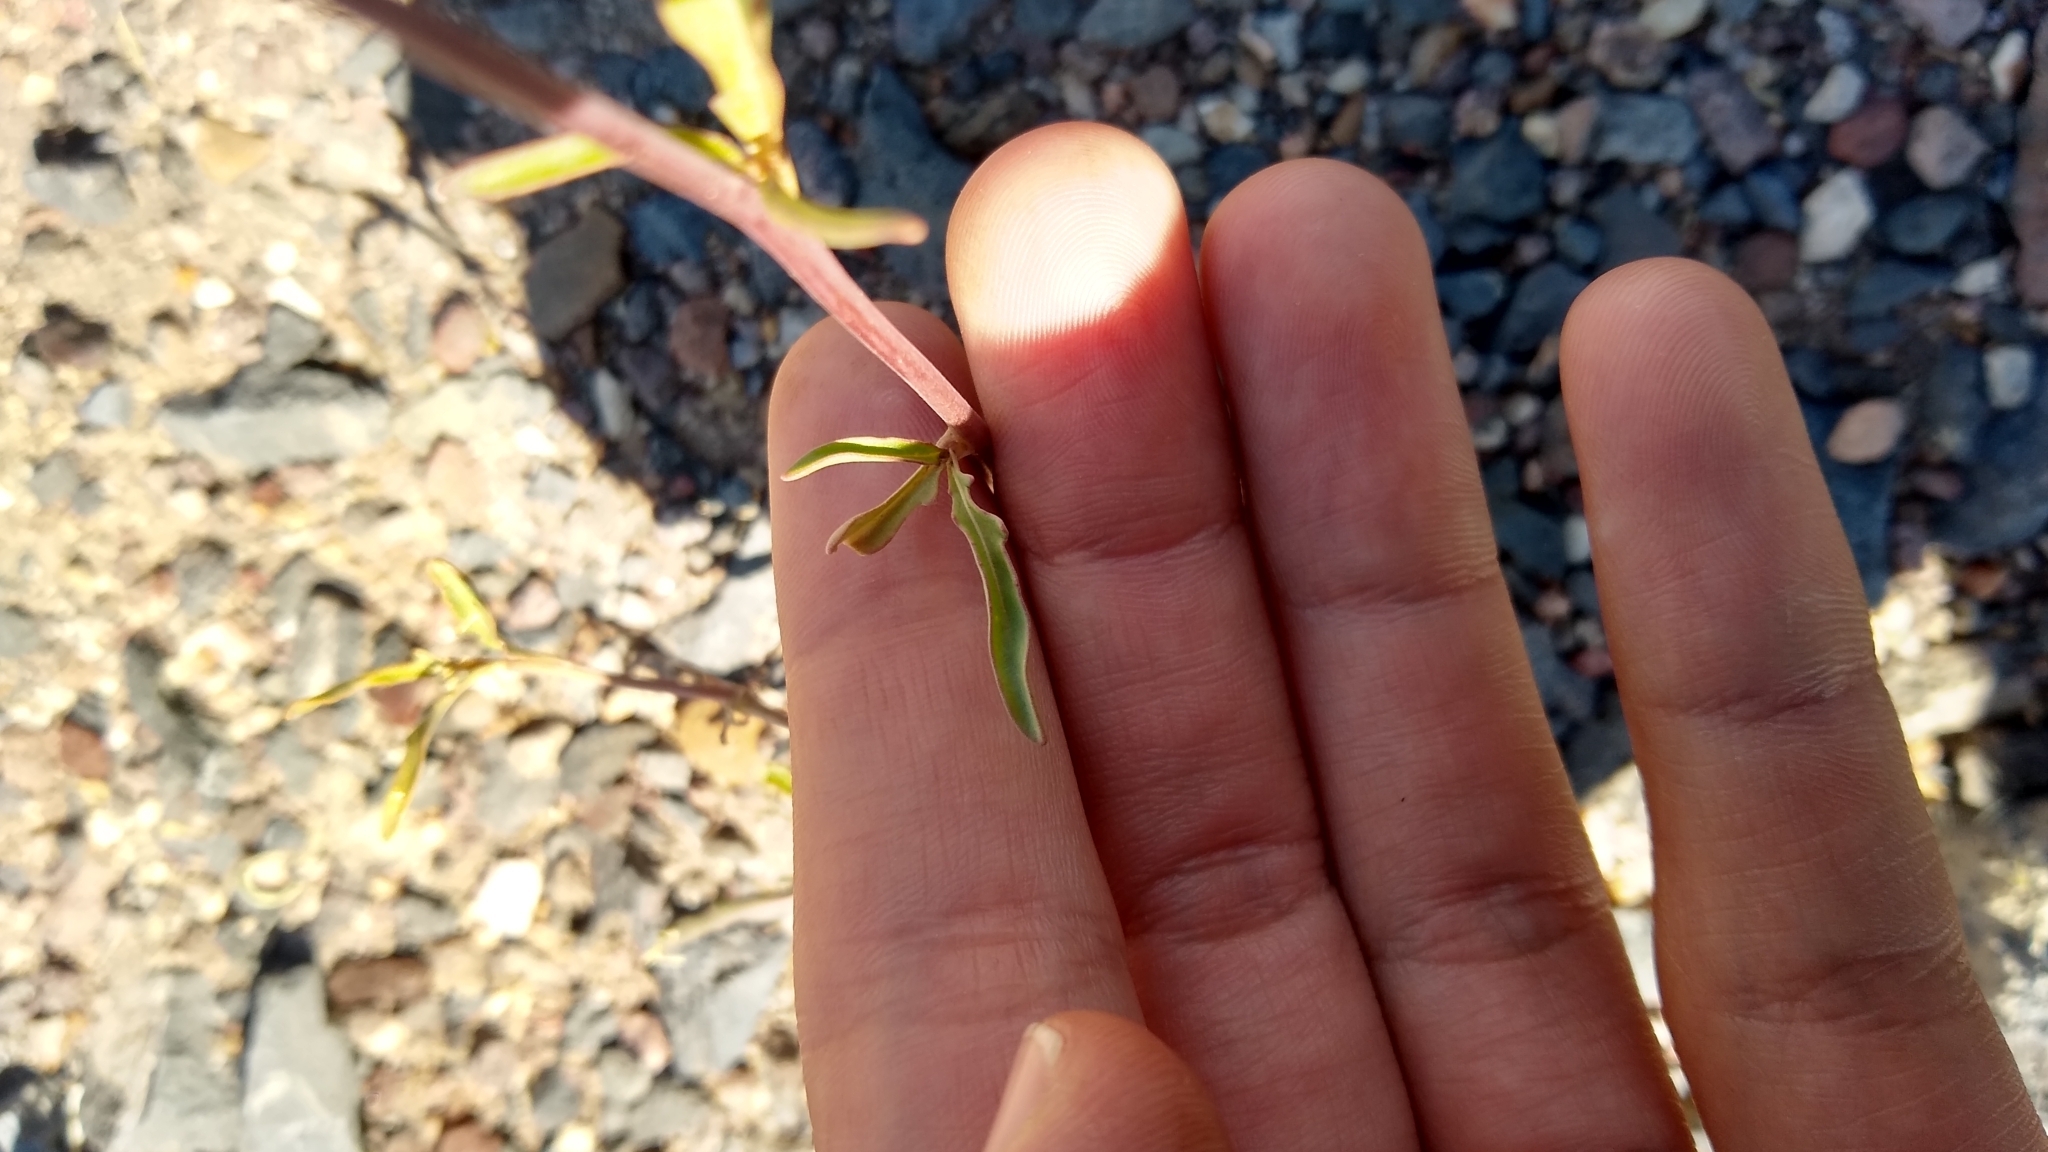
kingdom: Plantae
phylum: Tracheophyta
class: Magnoliopsida
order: Brassicales
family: Brassicaceae
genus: Physaria
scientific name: Physaria mendocina
